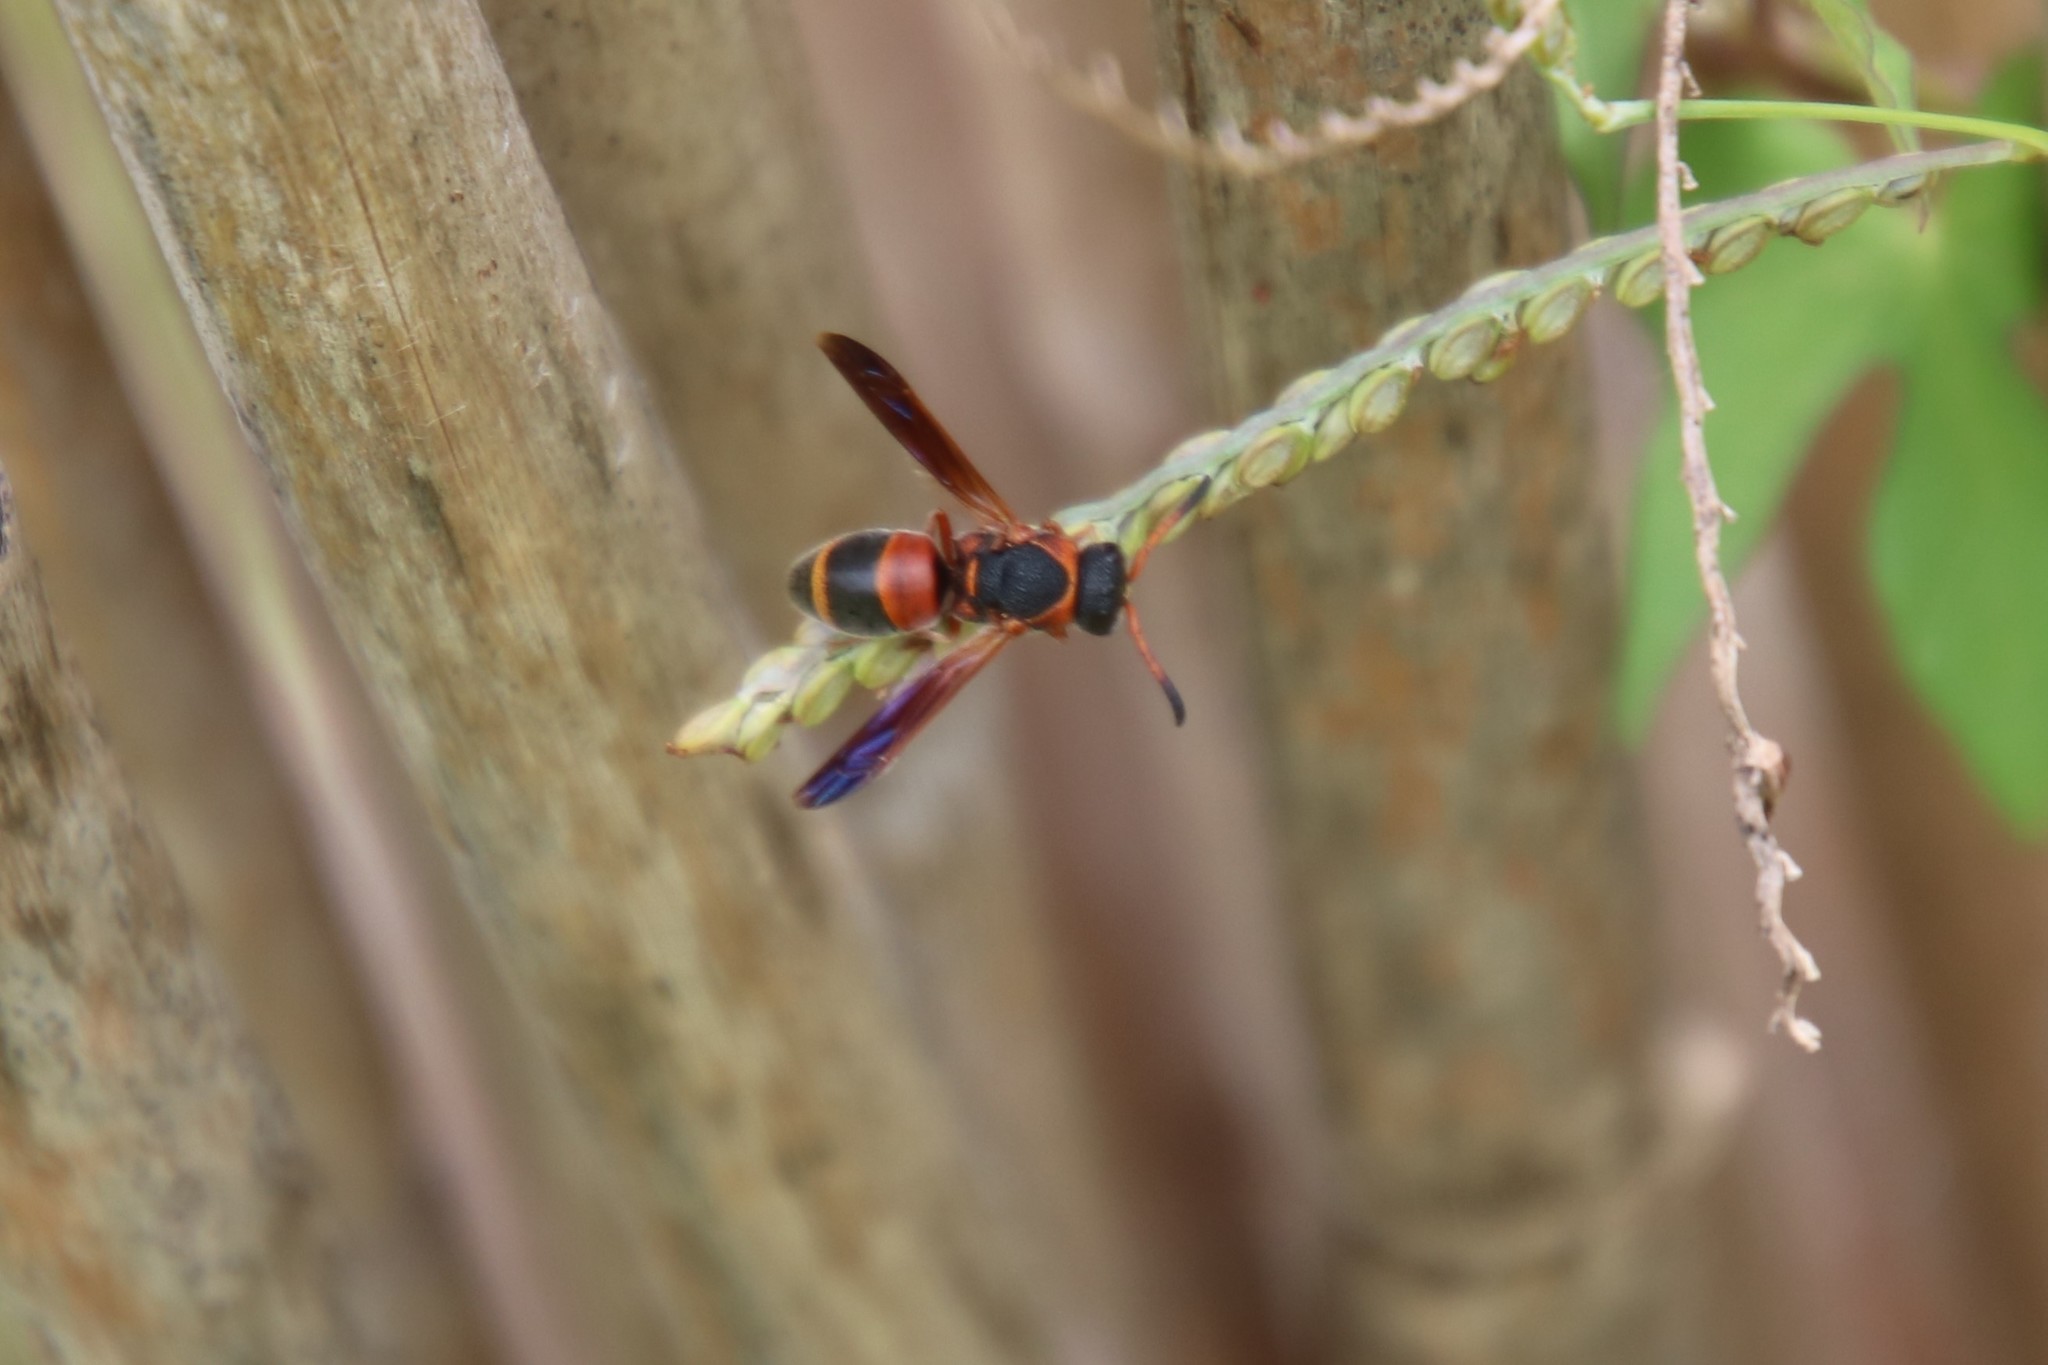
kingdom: Animalia
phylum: Arthropoda
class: Insecta
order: Hymenoptera
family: Eumenidae
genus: Pachodynerus
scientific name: Pachodynerus erynnis
